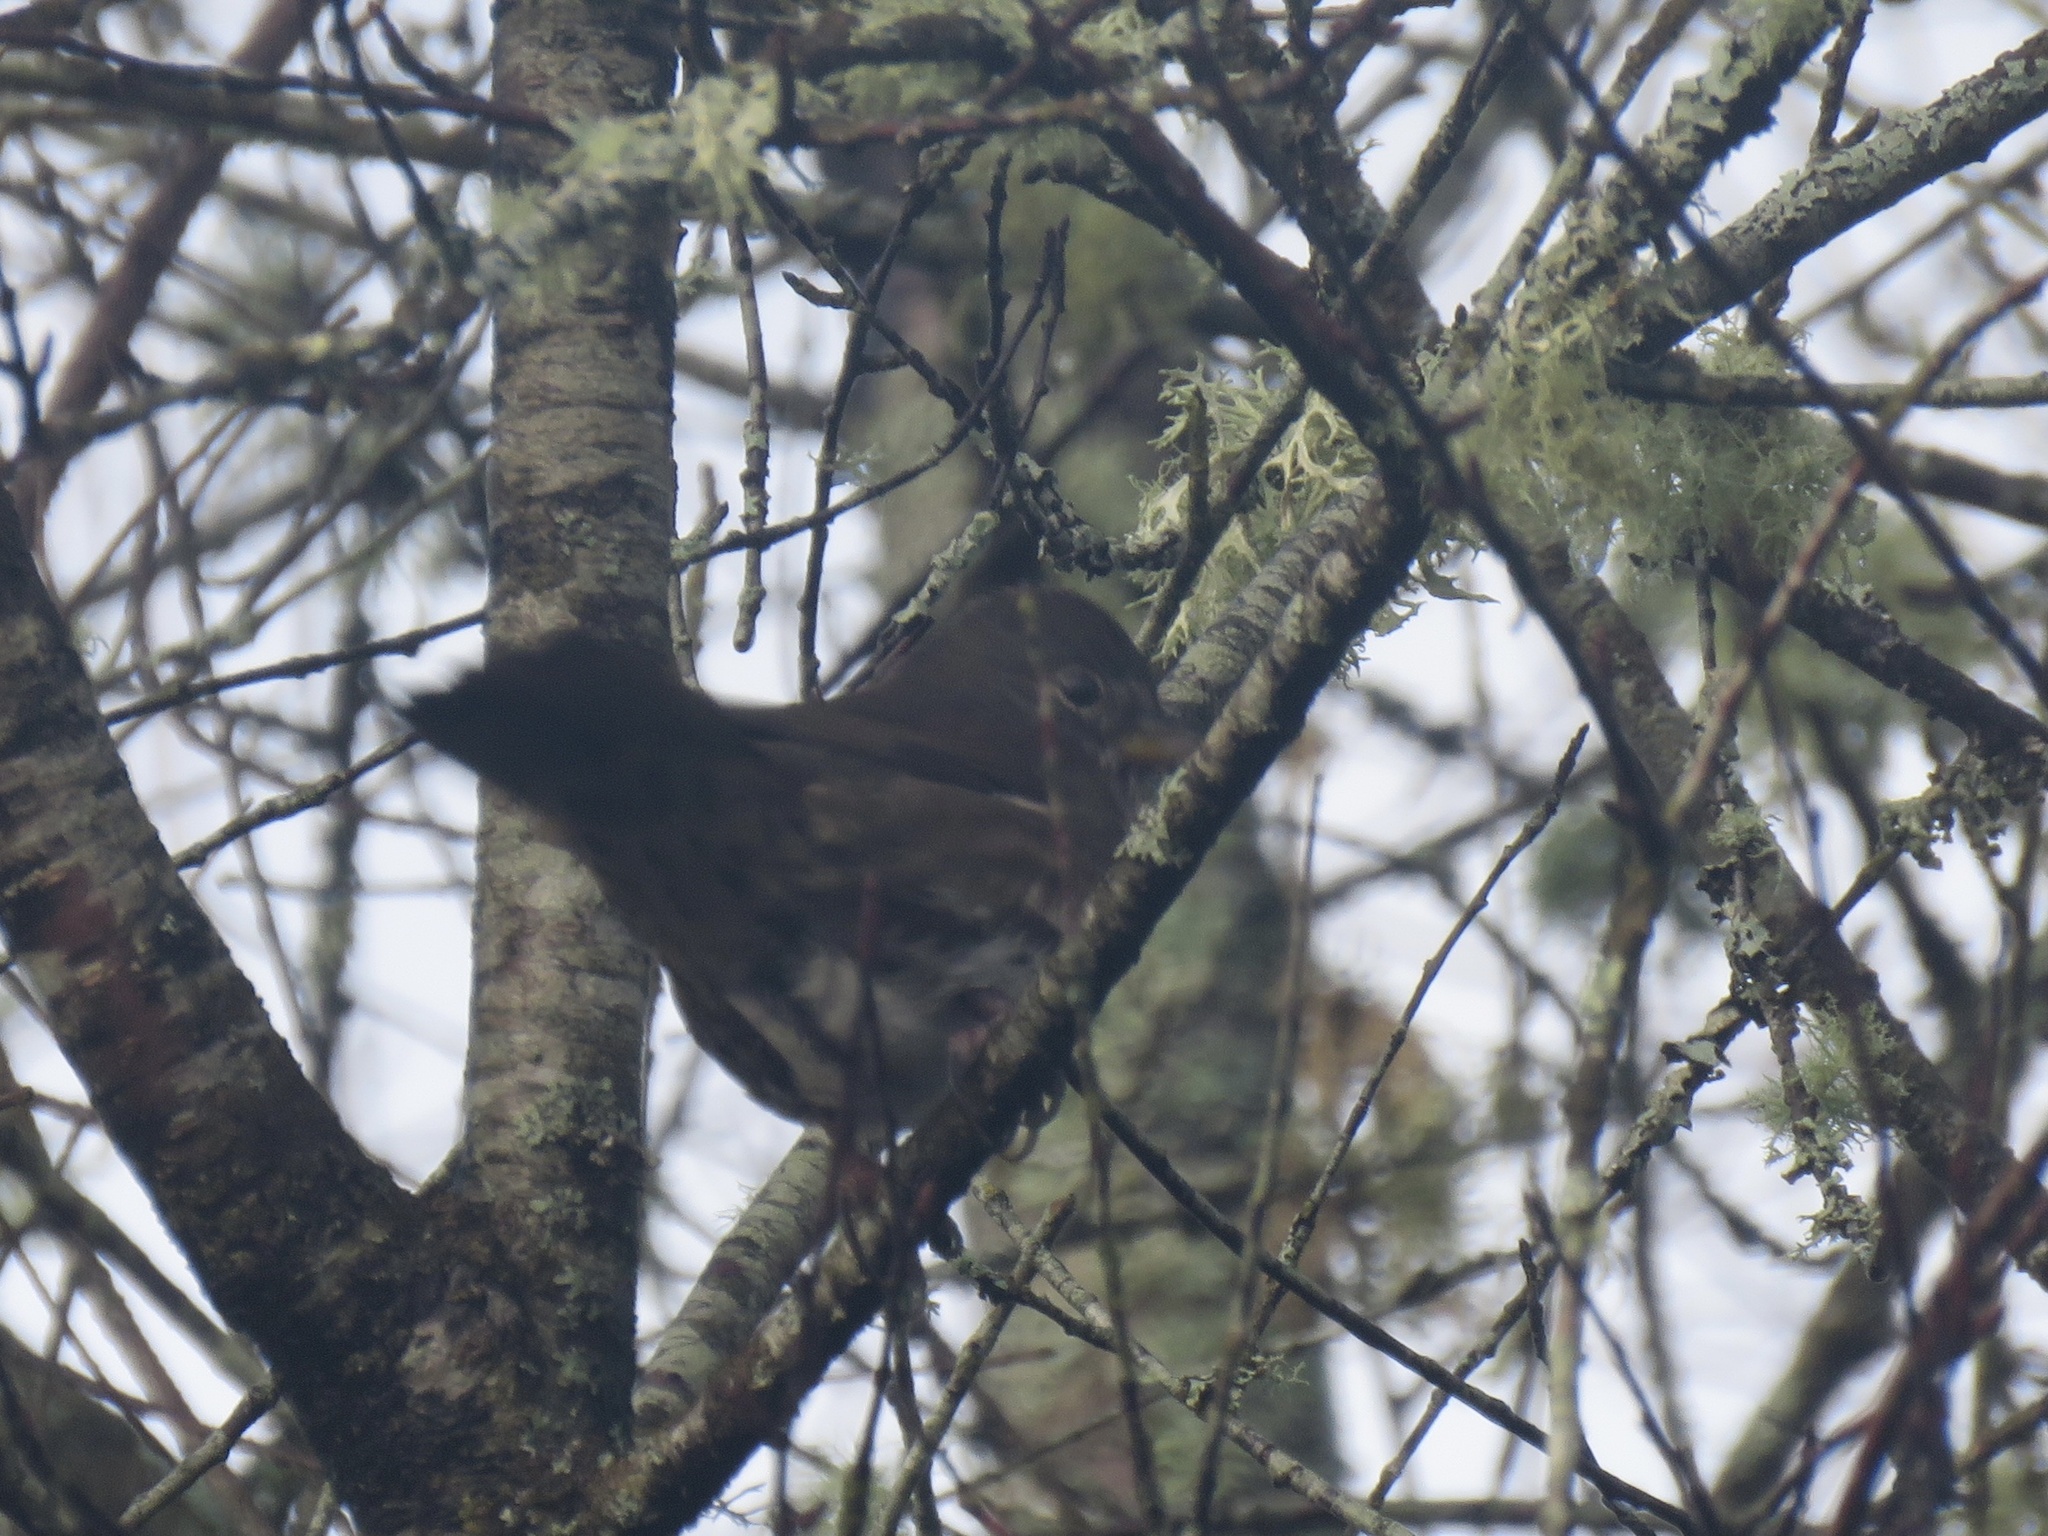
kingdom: Animalia
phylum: Chordata
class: Aves
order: Passeriformes
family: Passerellidae
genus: Passerella
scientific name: Passerella iliaca
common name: Fox sparrow
